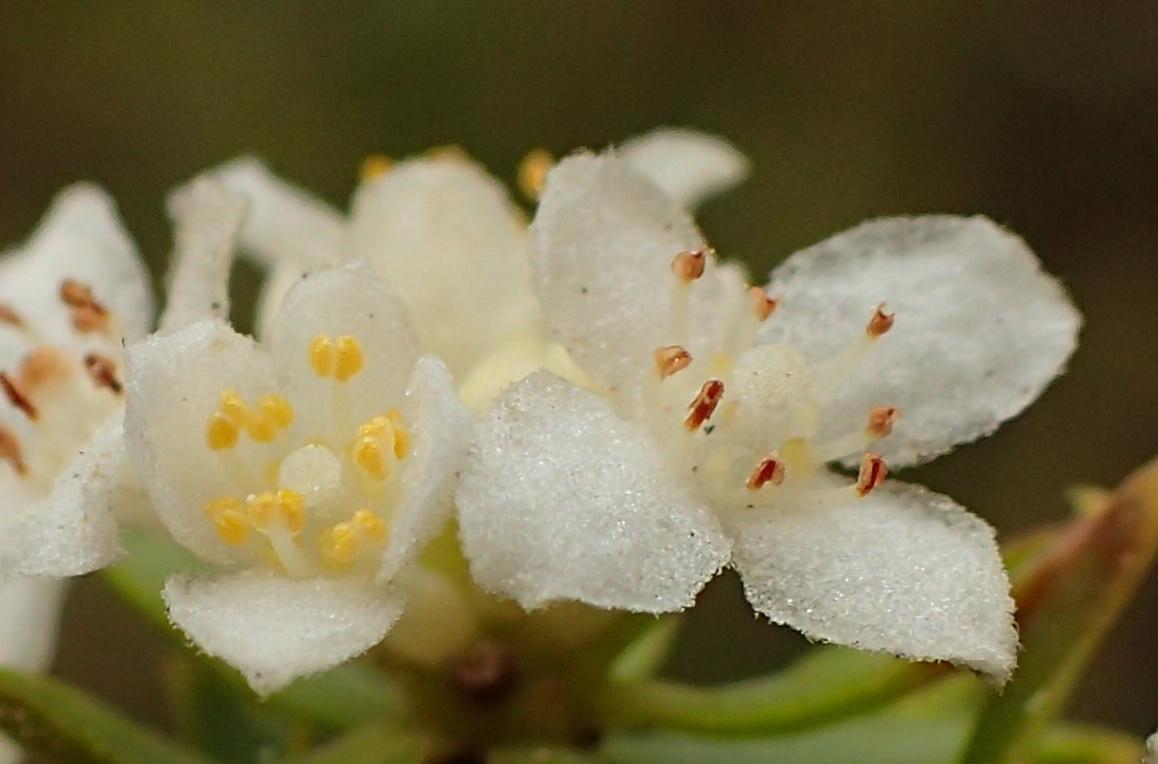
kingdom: Plantae
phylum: Tracheophyta
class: Magnoliopsida
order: Malvales
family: Thymelaeaceae
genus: Lachnaea
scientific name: Lachnaea diosmoides
